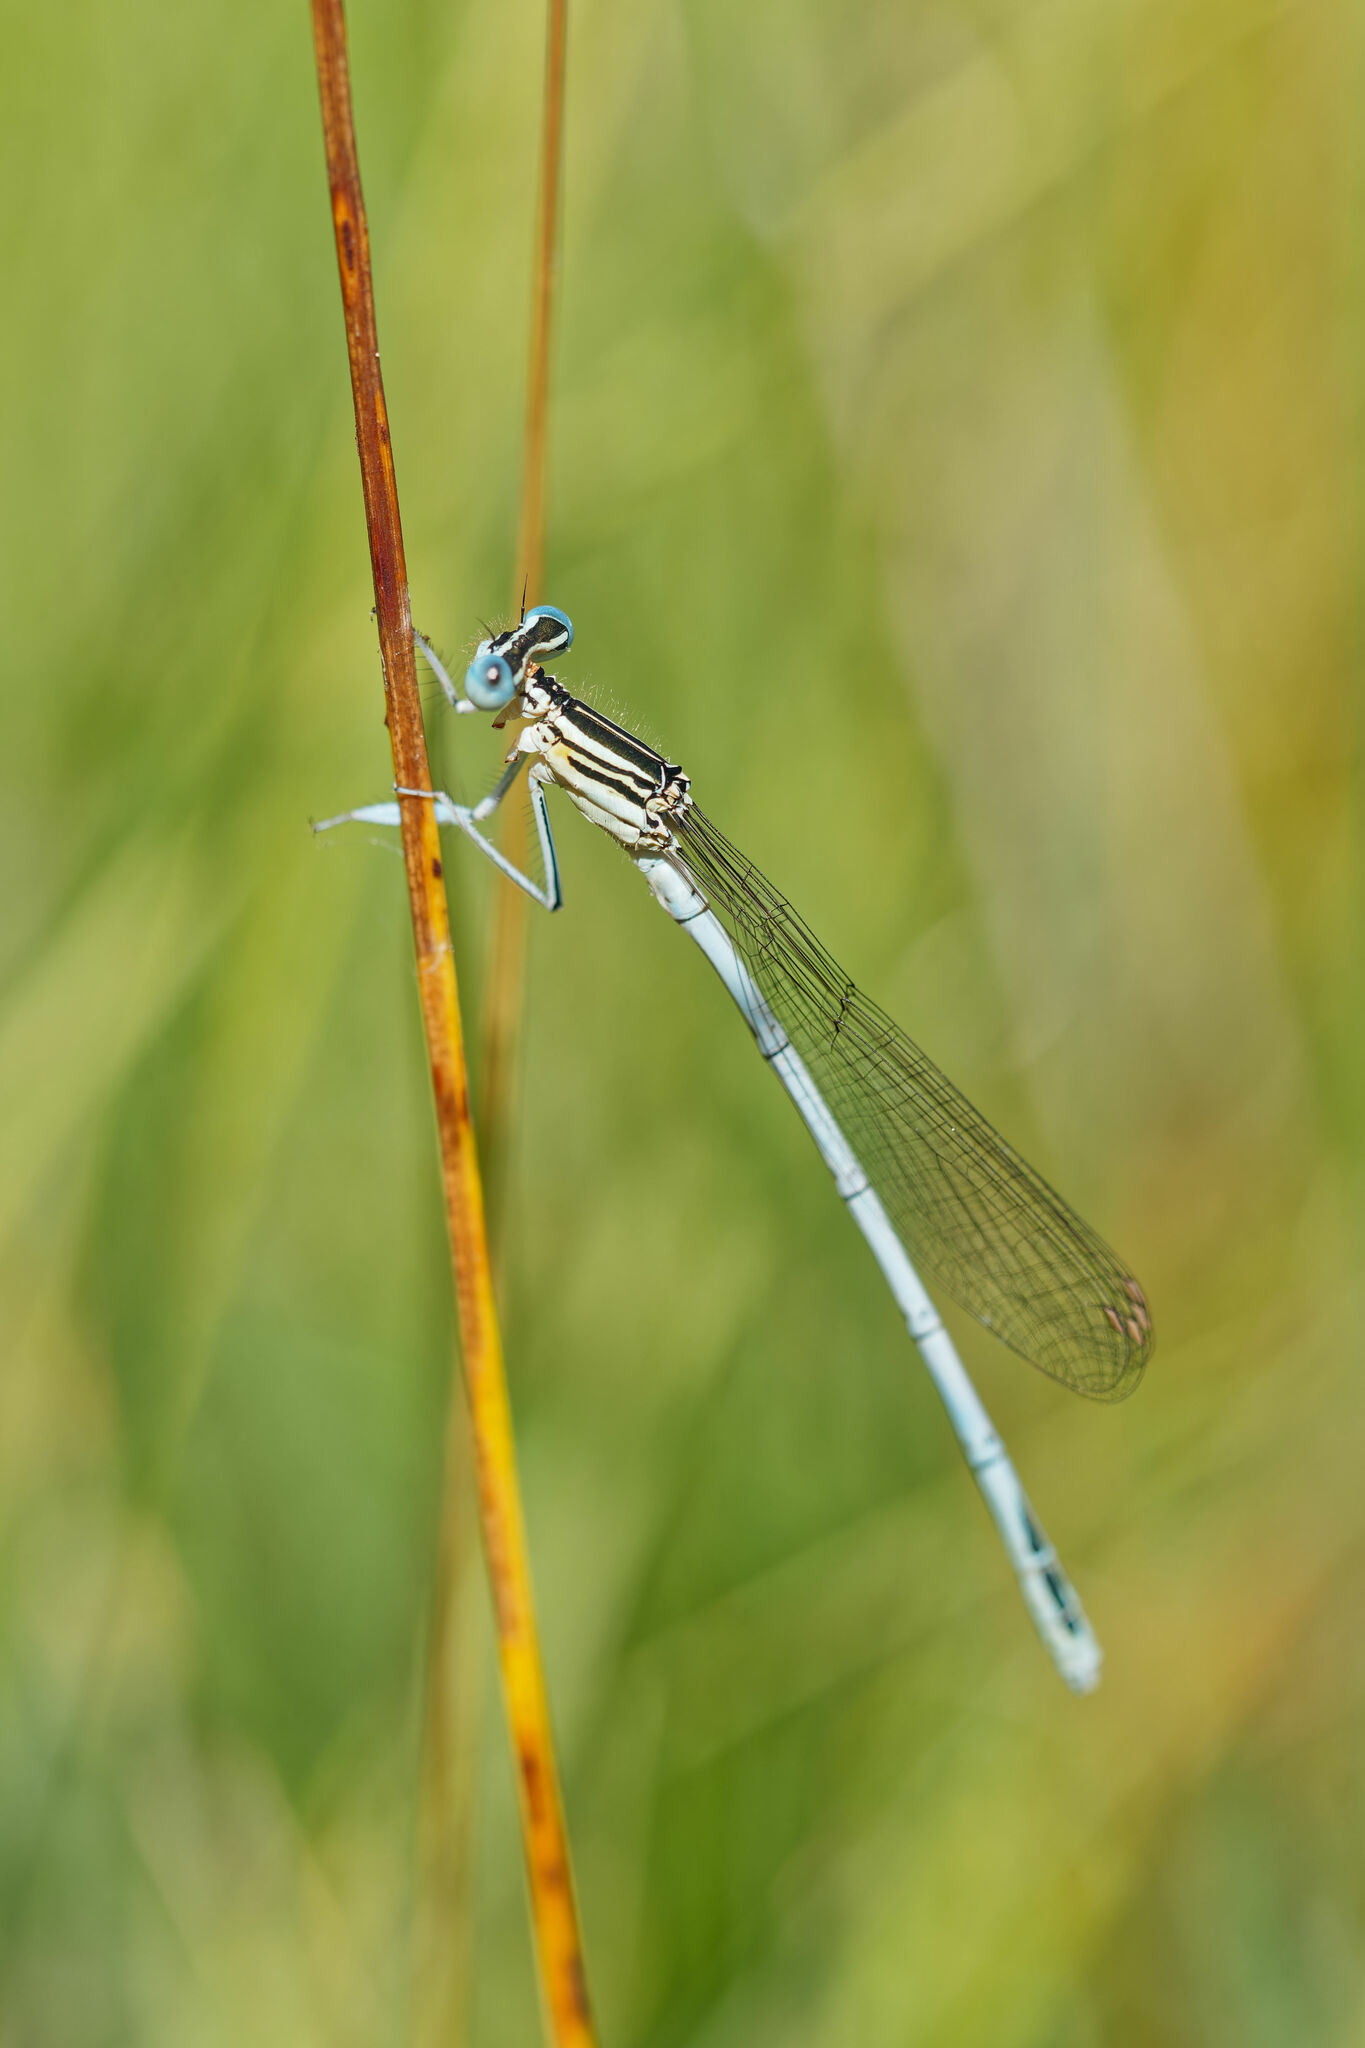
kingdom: Animalia
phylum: Arthropoda
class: Insecta
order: Odonata
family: Platycnemididae
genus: Platycnemis
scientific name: Platycnemis pennipes
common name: White-legged damselfly
